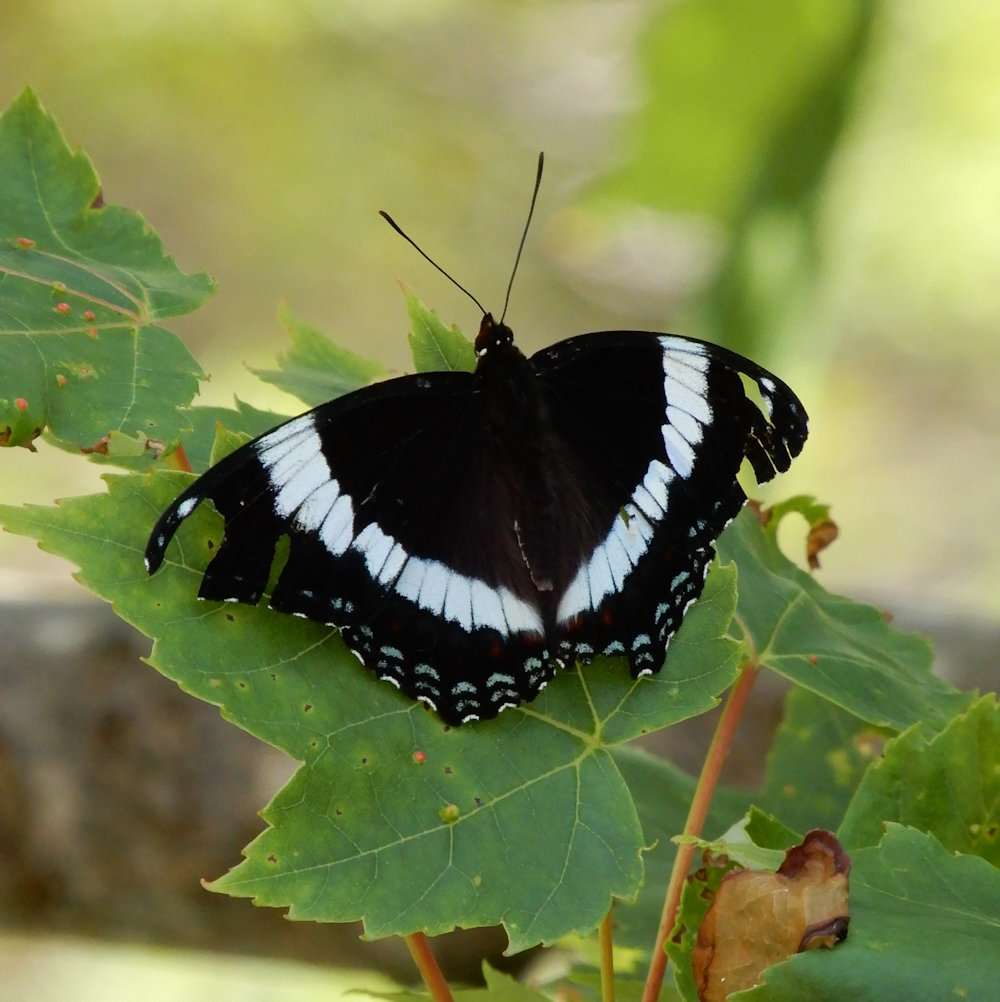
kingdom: Animalia
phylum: Arthropoda
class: Insecta
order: Lepidoptera
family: Nymphalidae
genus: Limenitis
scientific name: Limenitis arthemis
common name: Red-spotted admiral
